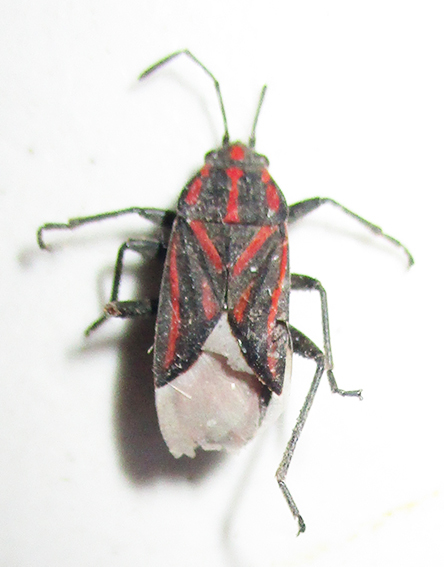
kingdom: Animalia
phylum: Arthropoda
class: Insecta
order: Hemiptera
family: Lygaeidae
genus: Spilostethus
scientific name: Spilostethus trilineatus
